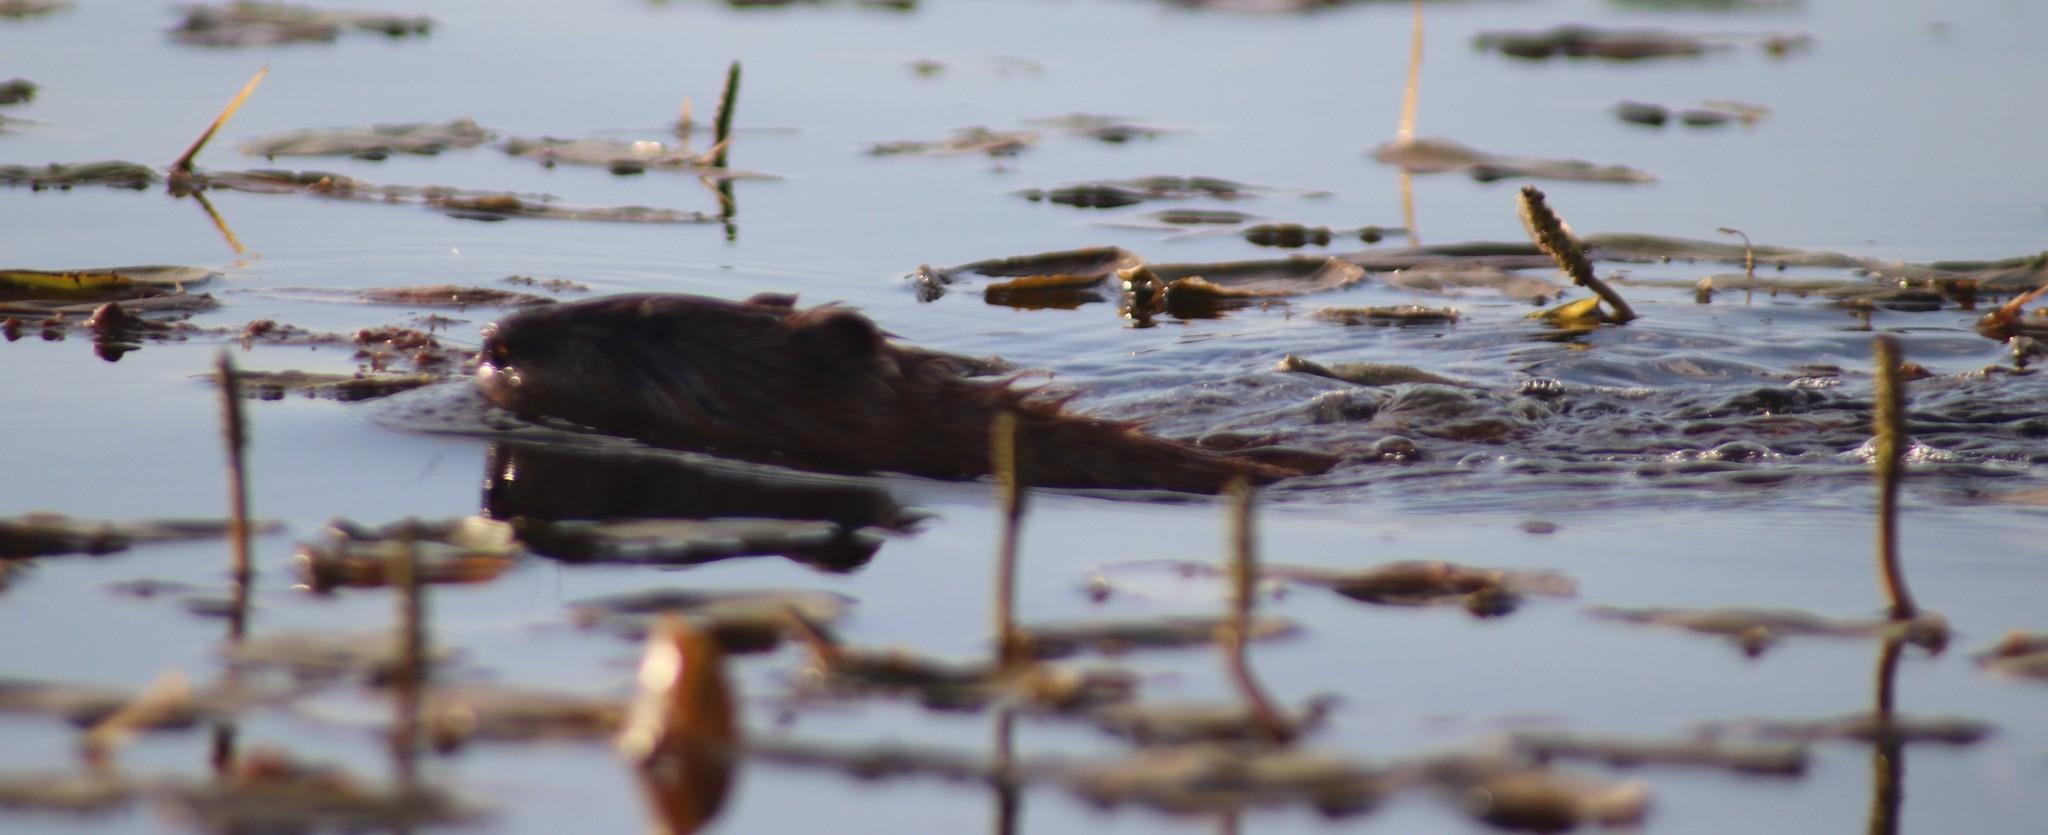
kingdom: Animalia
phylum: Chordata
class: Mammalia
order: Rodentia
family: Cricetidae
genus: Ondatra
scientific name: Ondatra zibethicus
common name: Muskrat
